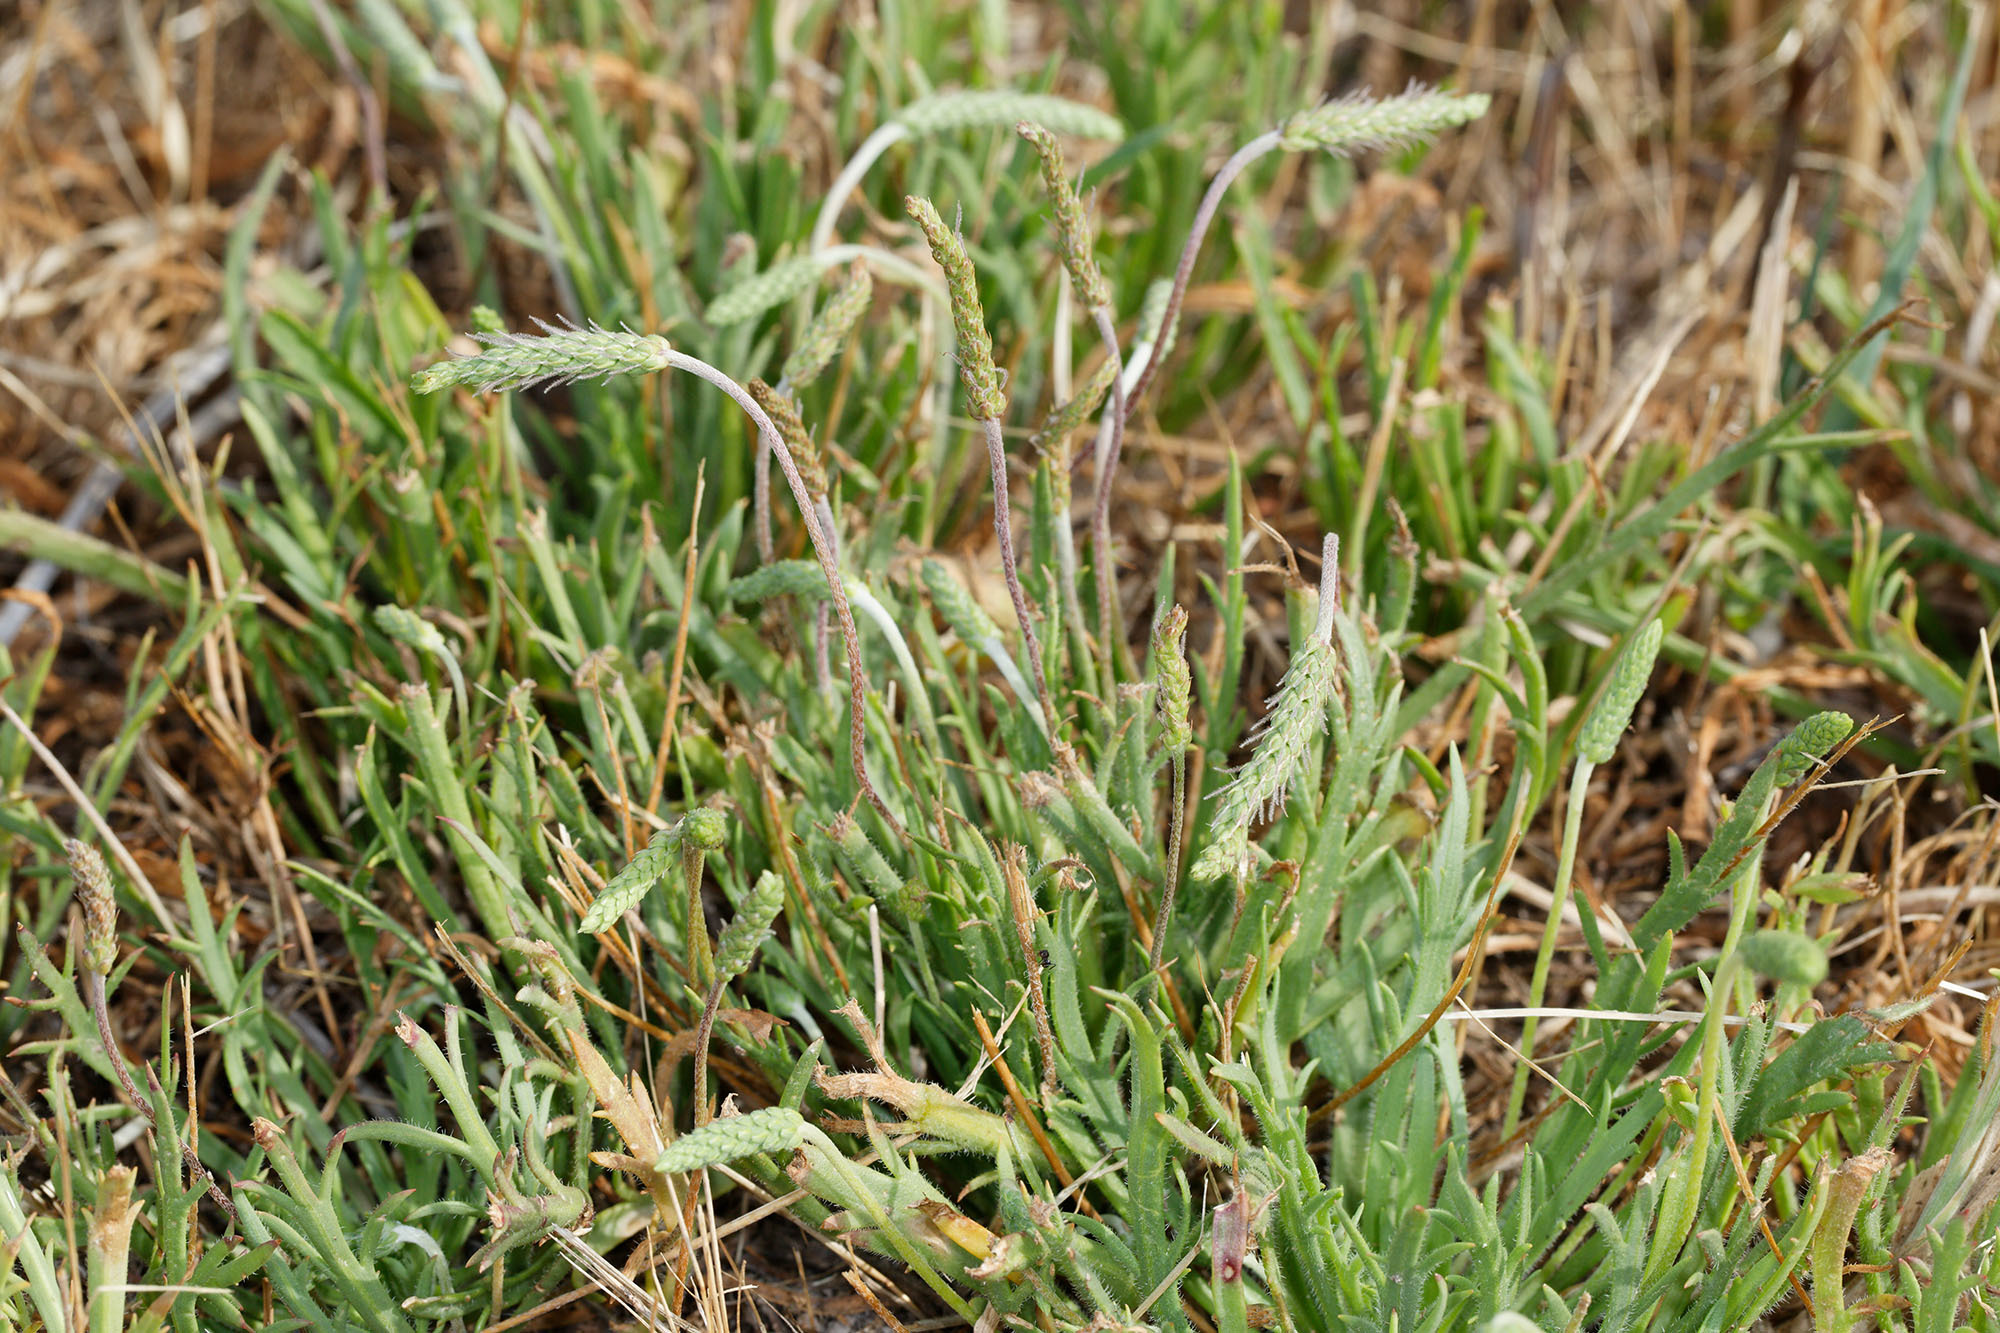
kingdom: Plantae
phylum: Tracheophyta
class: Magnoliopsida
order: Lamiales
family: Plantaginaceae
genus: Plantago
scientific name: Plantago coronopus
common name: Buck's-horn plantain
